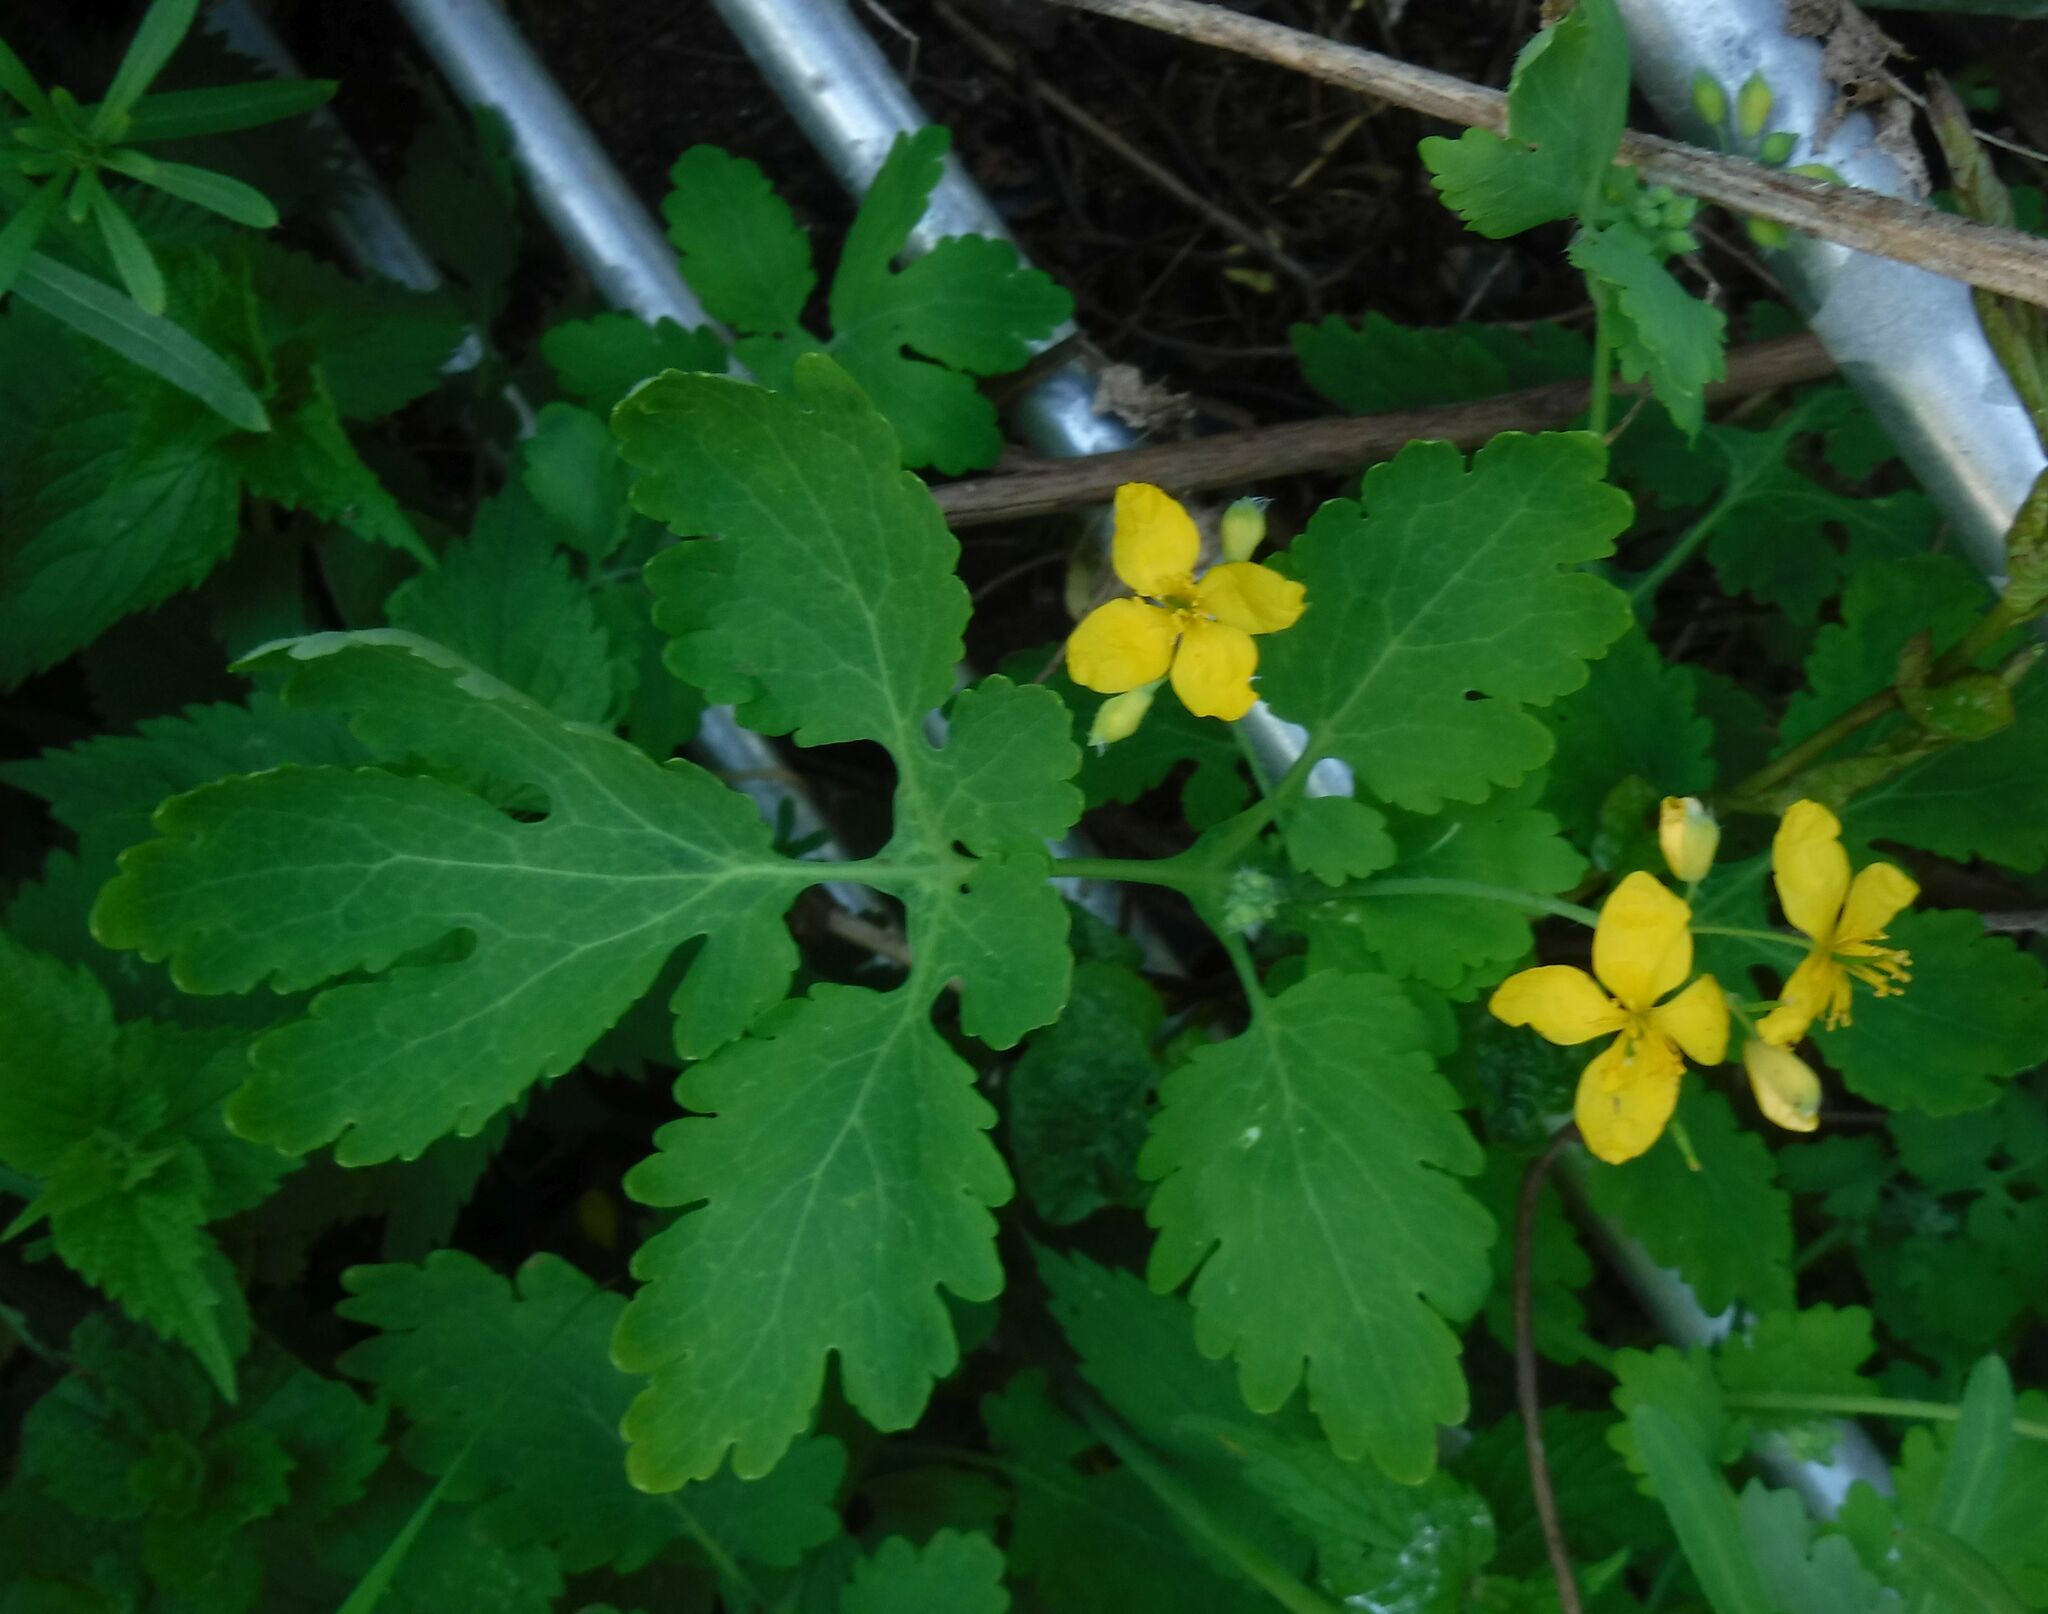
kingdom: Plantae
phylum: Tracheophyta
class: Magnoliopsida
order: Ranunculales
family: Papaveraceae
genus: Chelidonium
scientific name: Chelidonium majus
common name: Greater celandine
